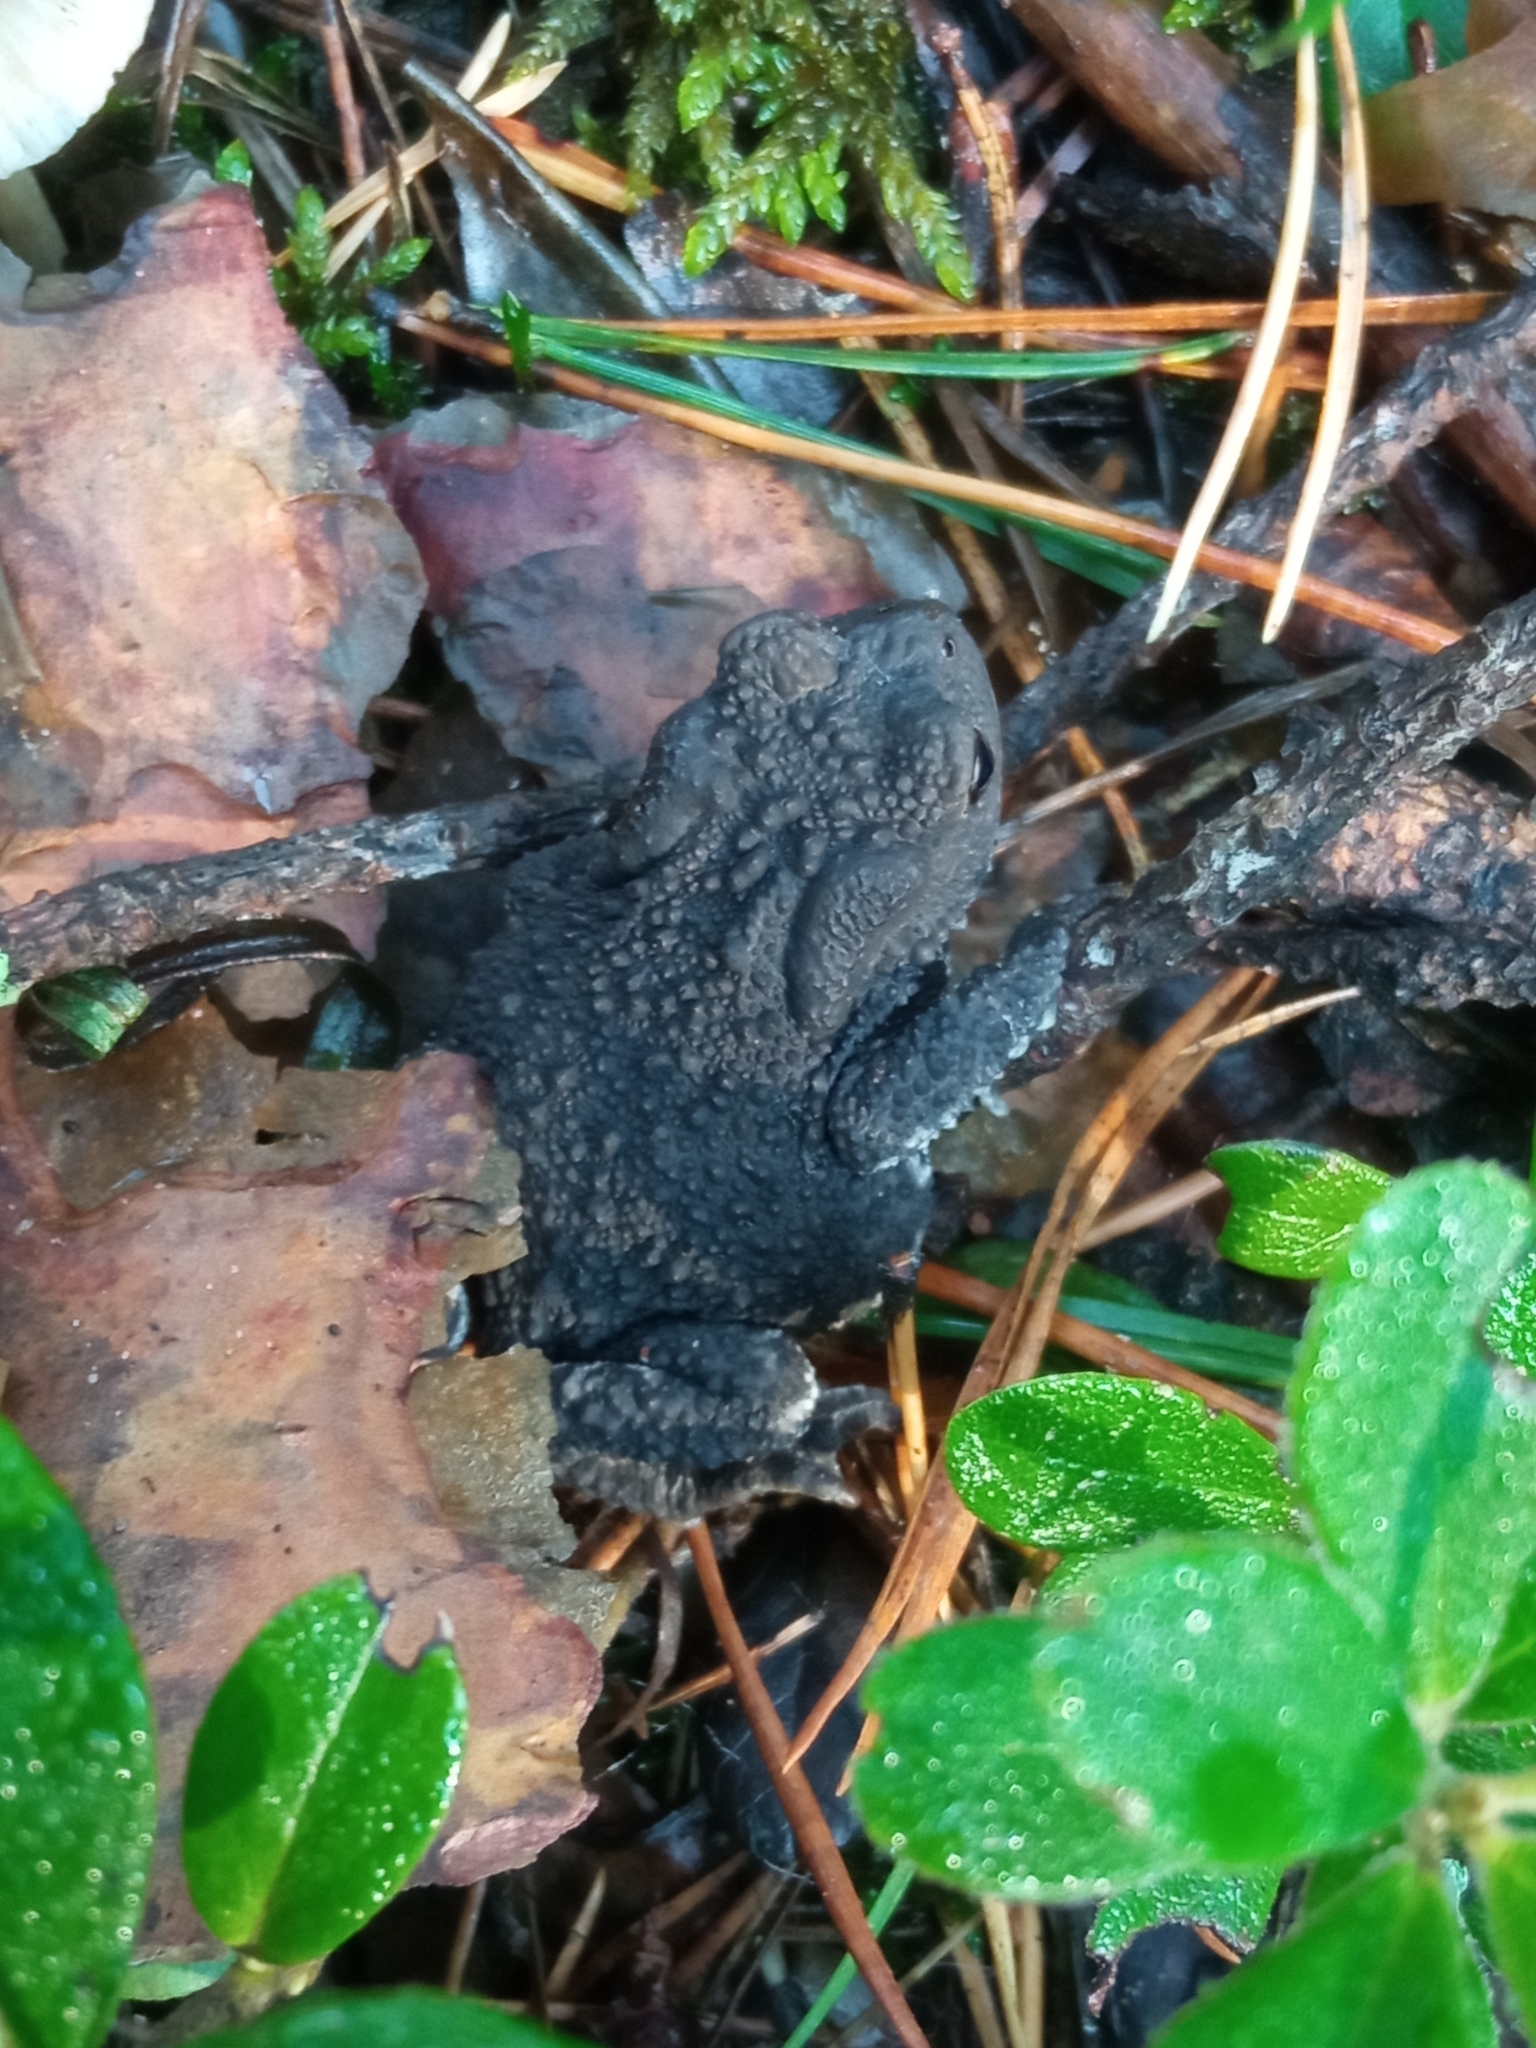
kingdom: Animalia
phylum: Chordata
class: Amphibia
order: Anura
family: Bufonidae
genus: Bufo
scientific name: Bufo bufo
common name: Common toad
